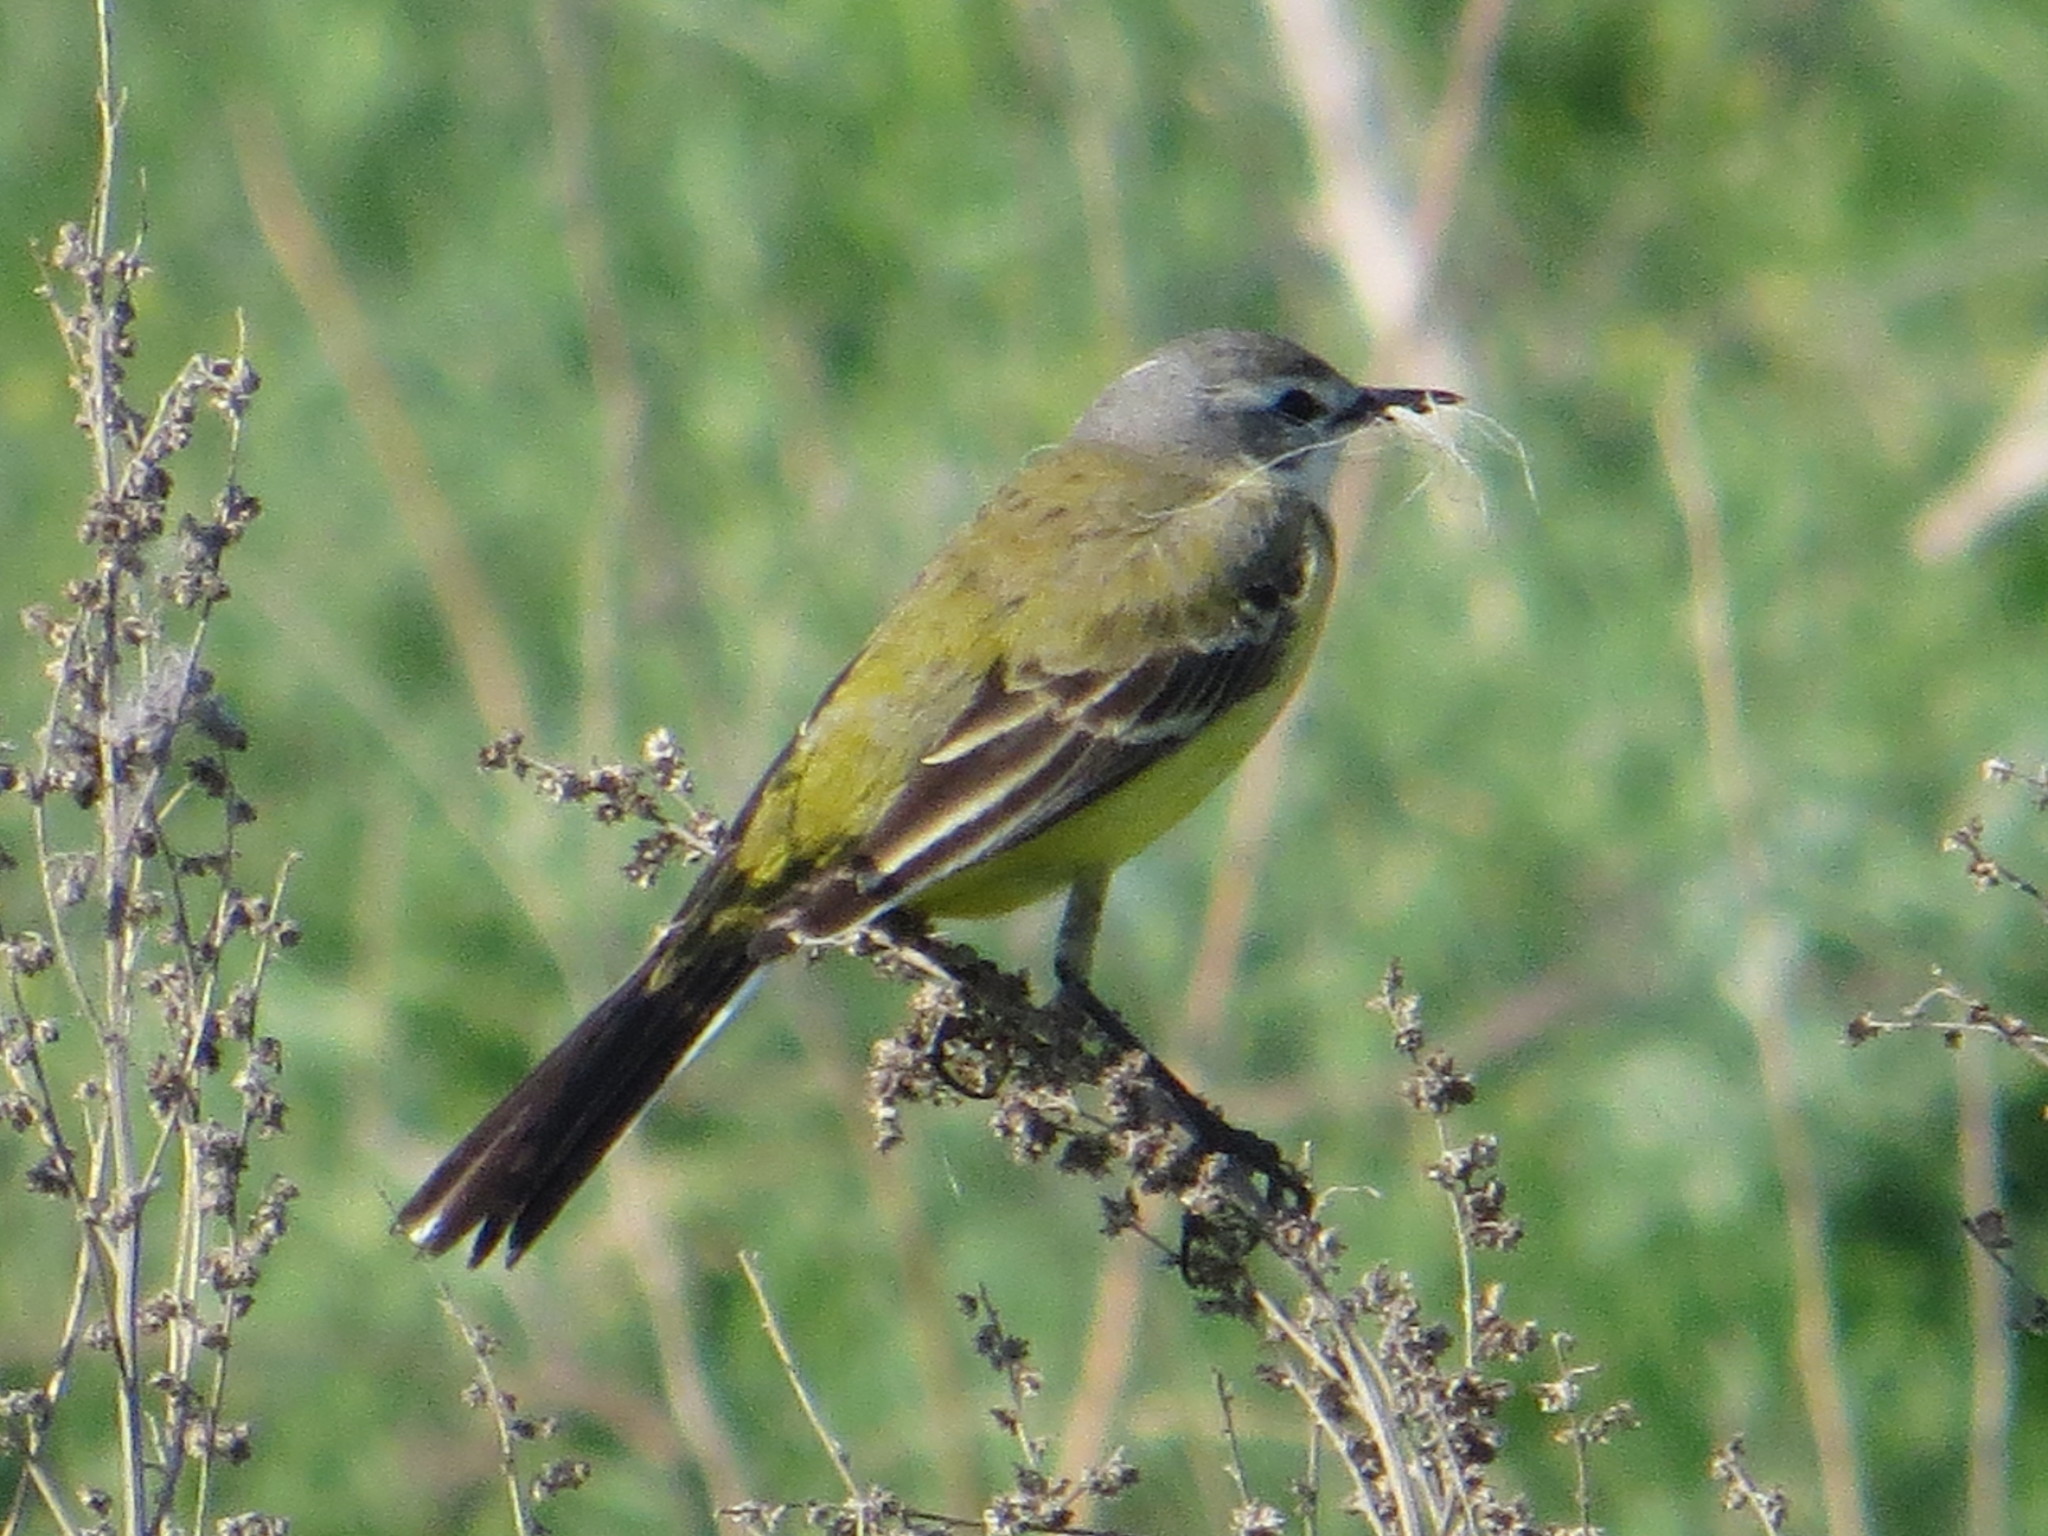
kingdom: Animalia
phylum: Chordata
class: Aves
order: Passeriformes
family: Motacillidae
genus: Motacilla
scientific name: Motacilla flava
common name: Western yellow wagtail
